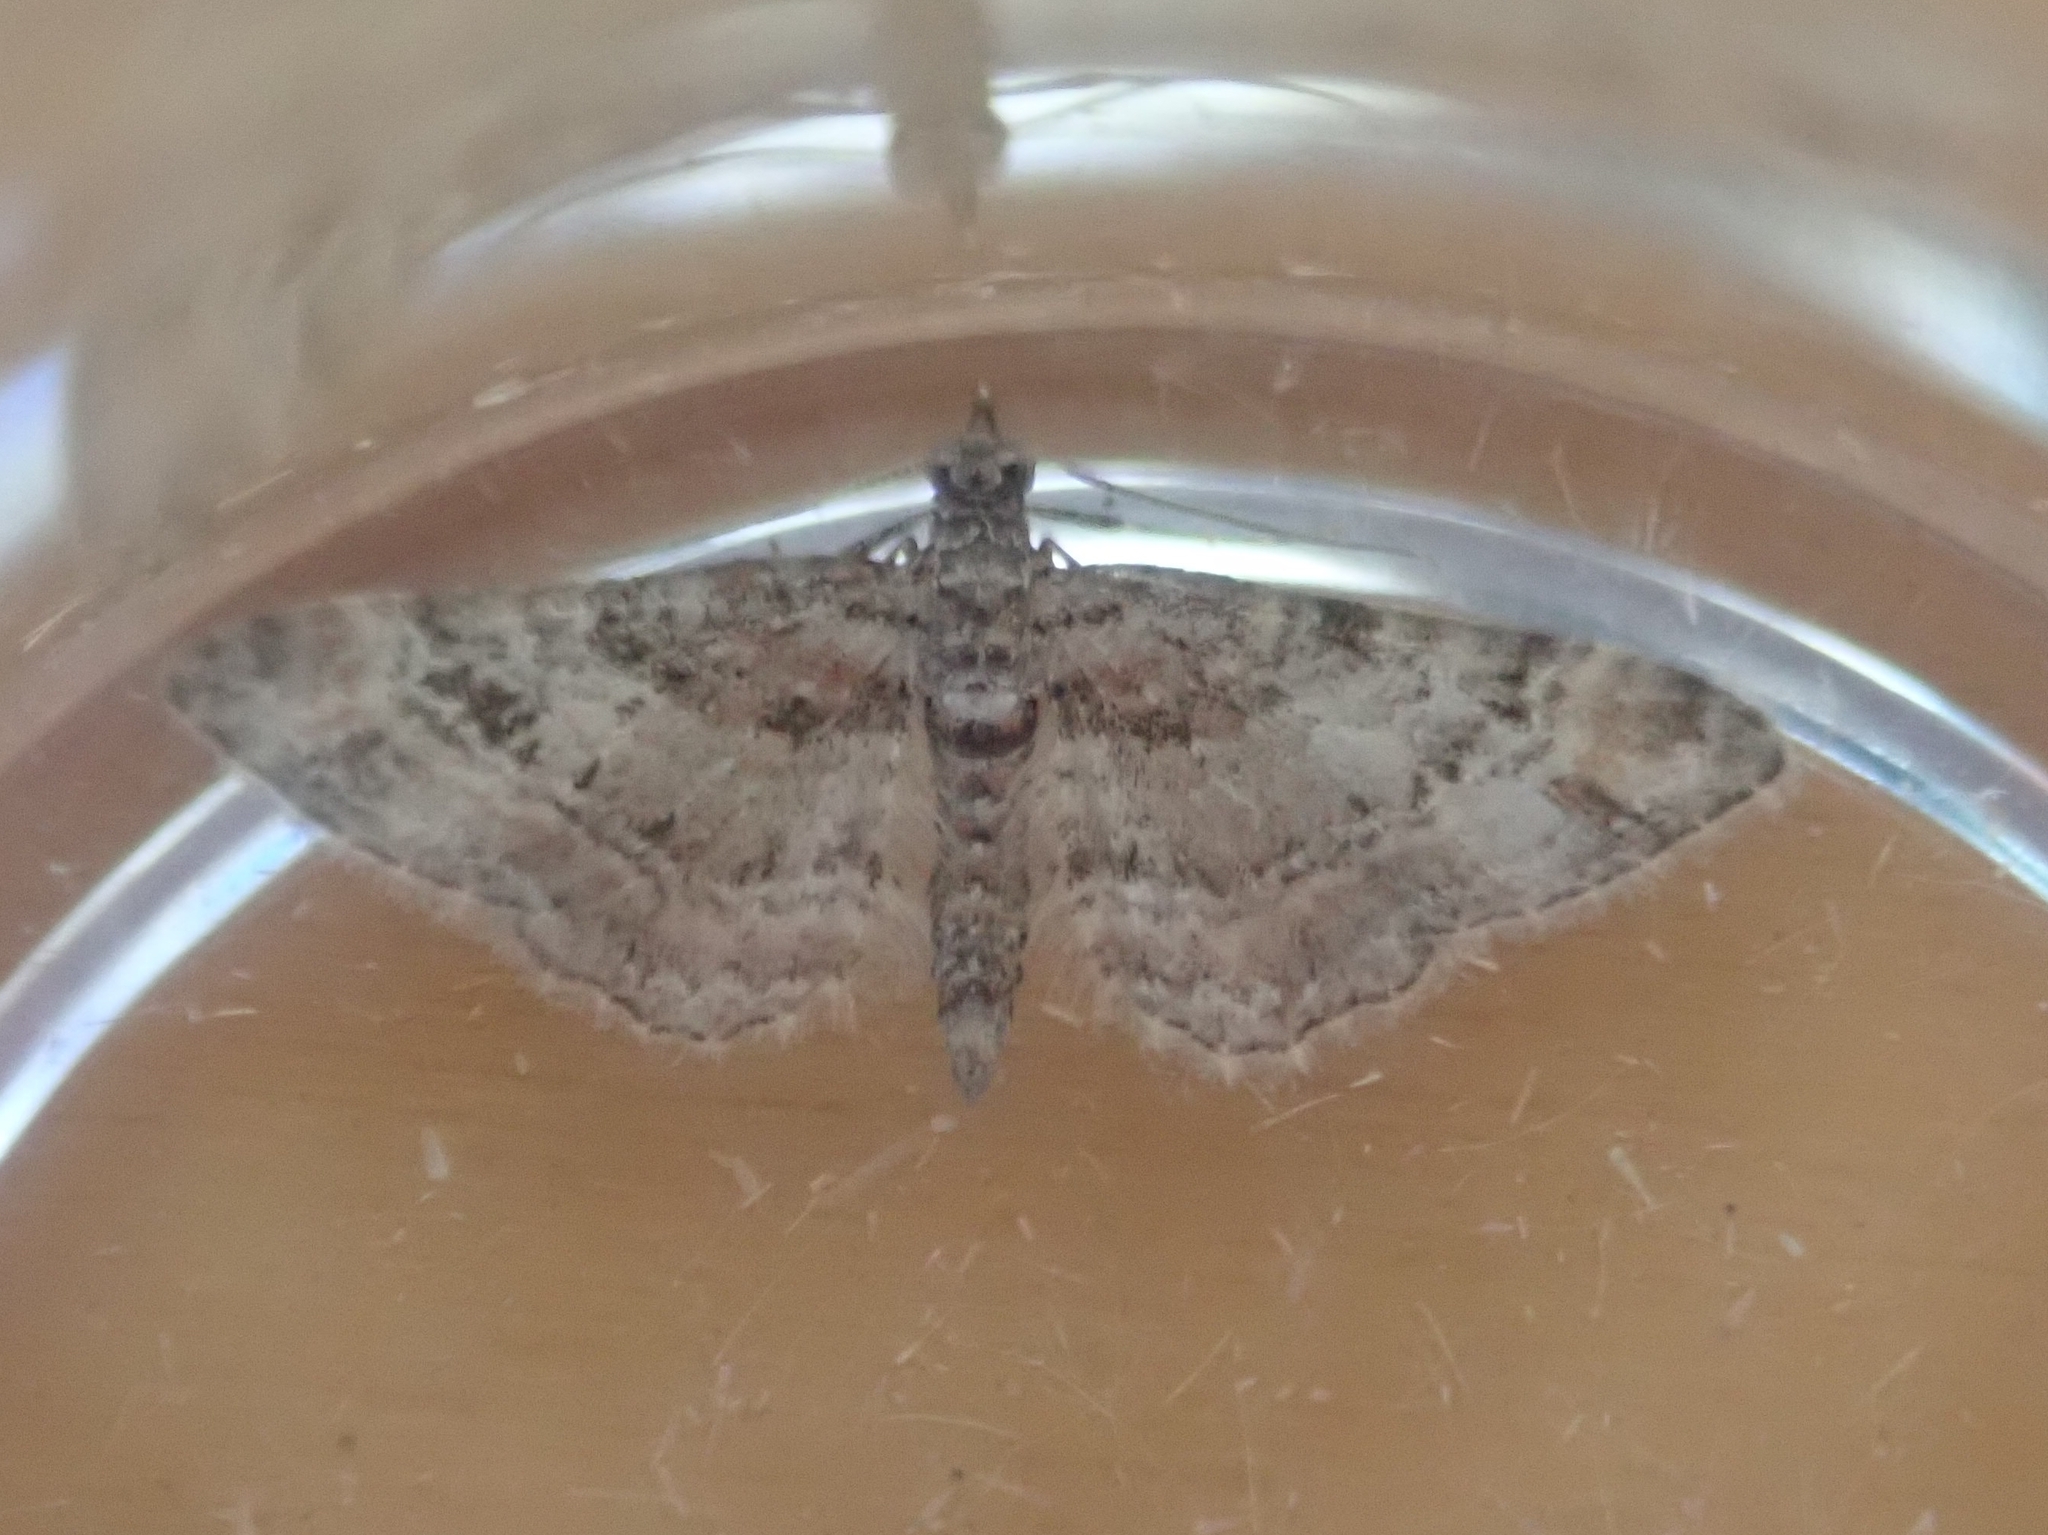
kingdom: Animalia
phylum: Arthropoda
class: Insecta
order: Lepidoptera
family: Geometridae
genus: Gymnoscelis
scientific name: Gymnoscelis rufifasciata
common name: Double-striped pug
